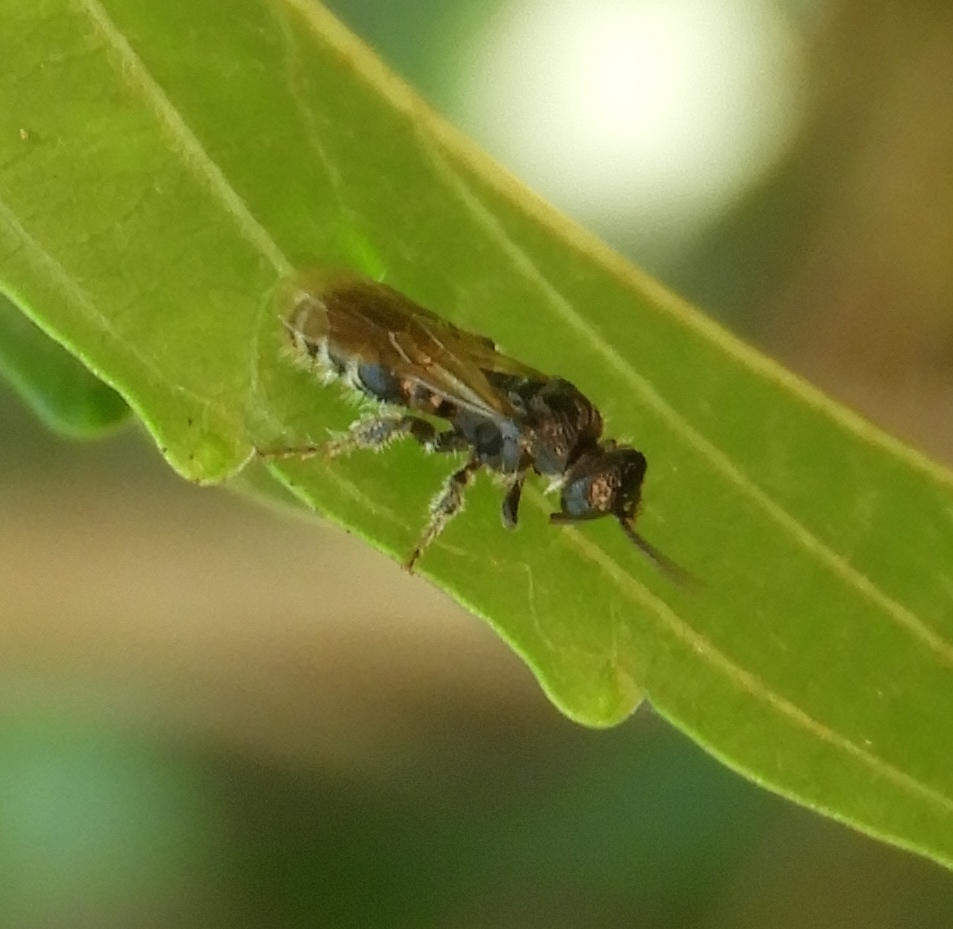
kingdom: Animalia
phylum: Arthropoda
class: Insecta
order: Hymenoptera
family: Tiphiidae
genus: Tiphia
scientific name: Tiphia
